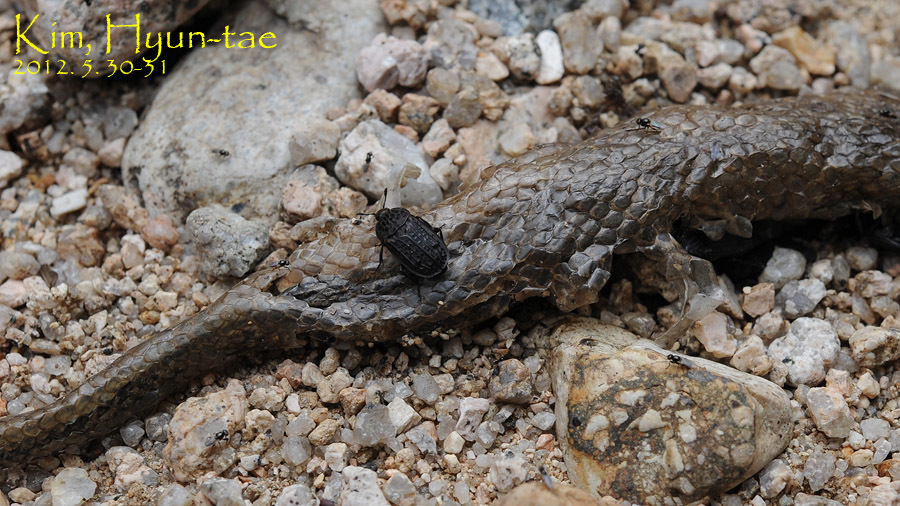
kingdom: Animalia
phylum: Arthropoda
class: Insecta
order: Coleoptera
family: Staphylinidae
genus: Thanatophilus
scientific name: Thanatophilus rugosus
